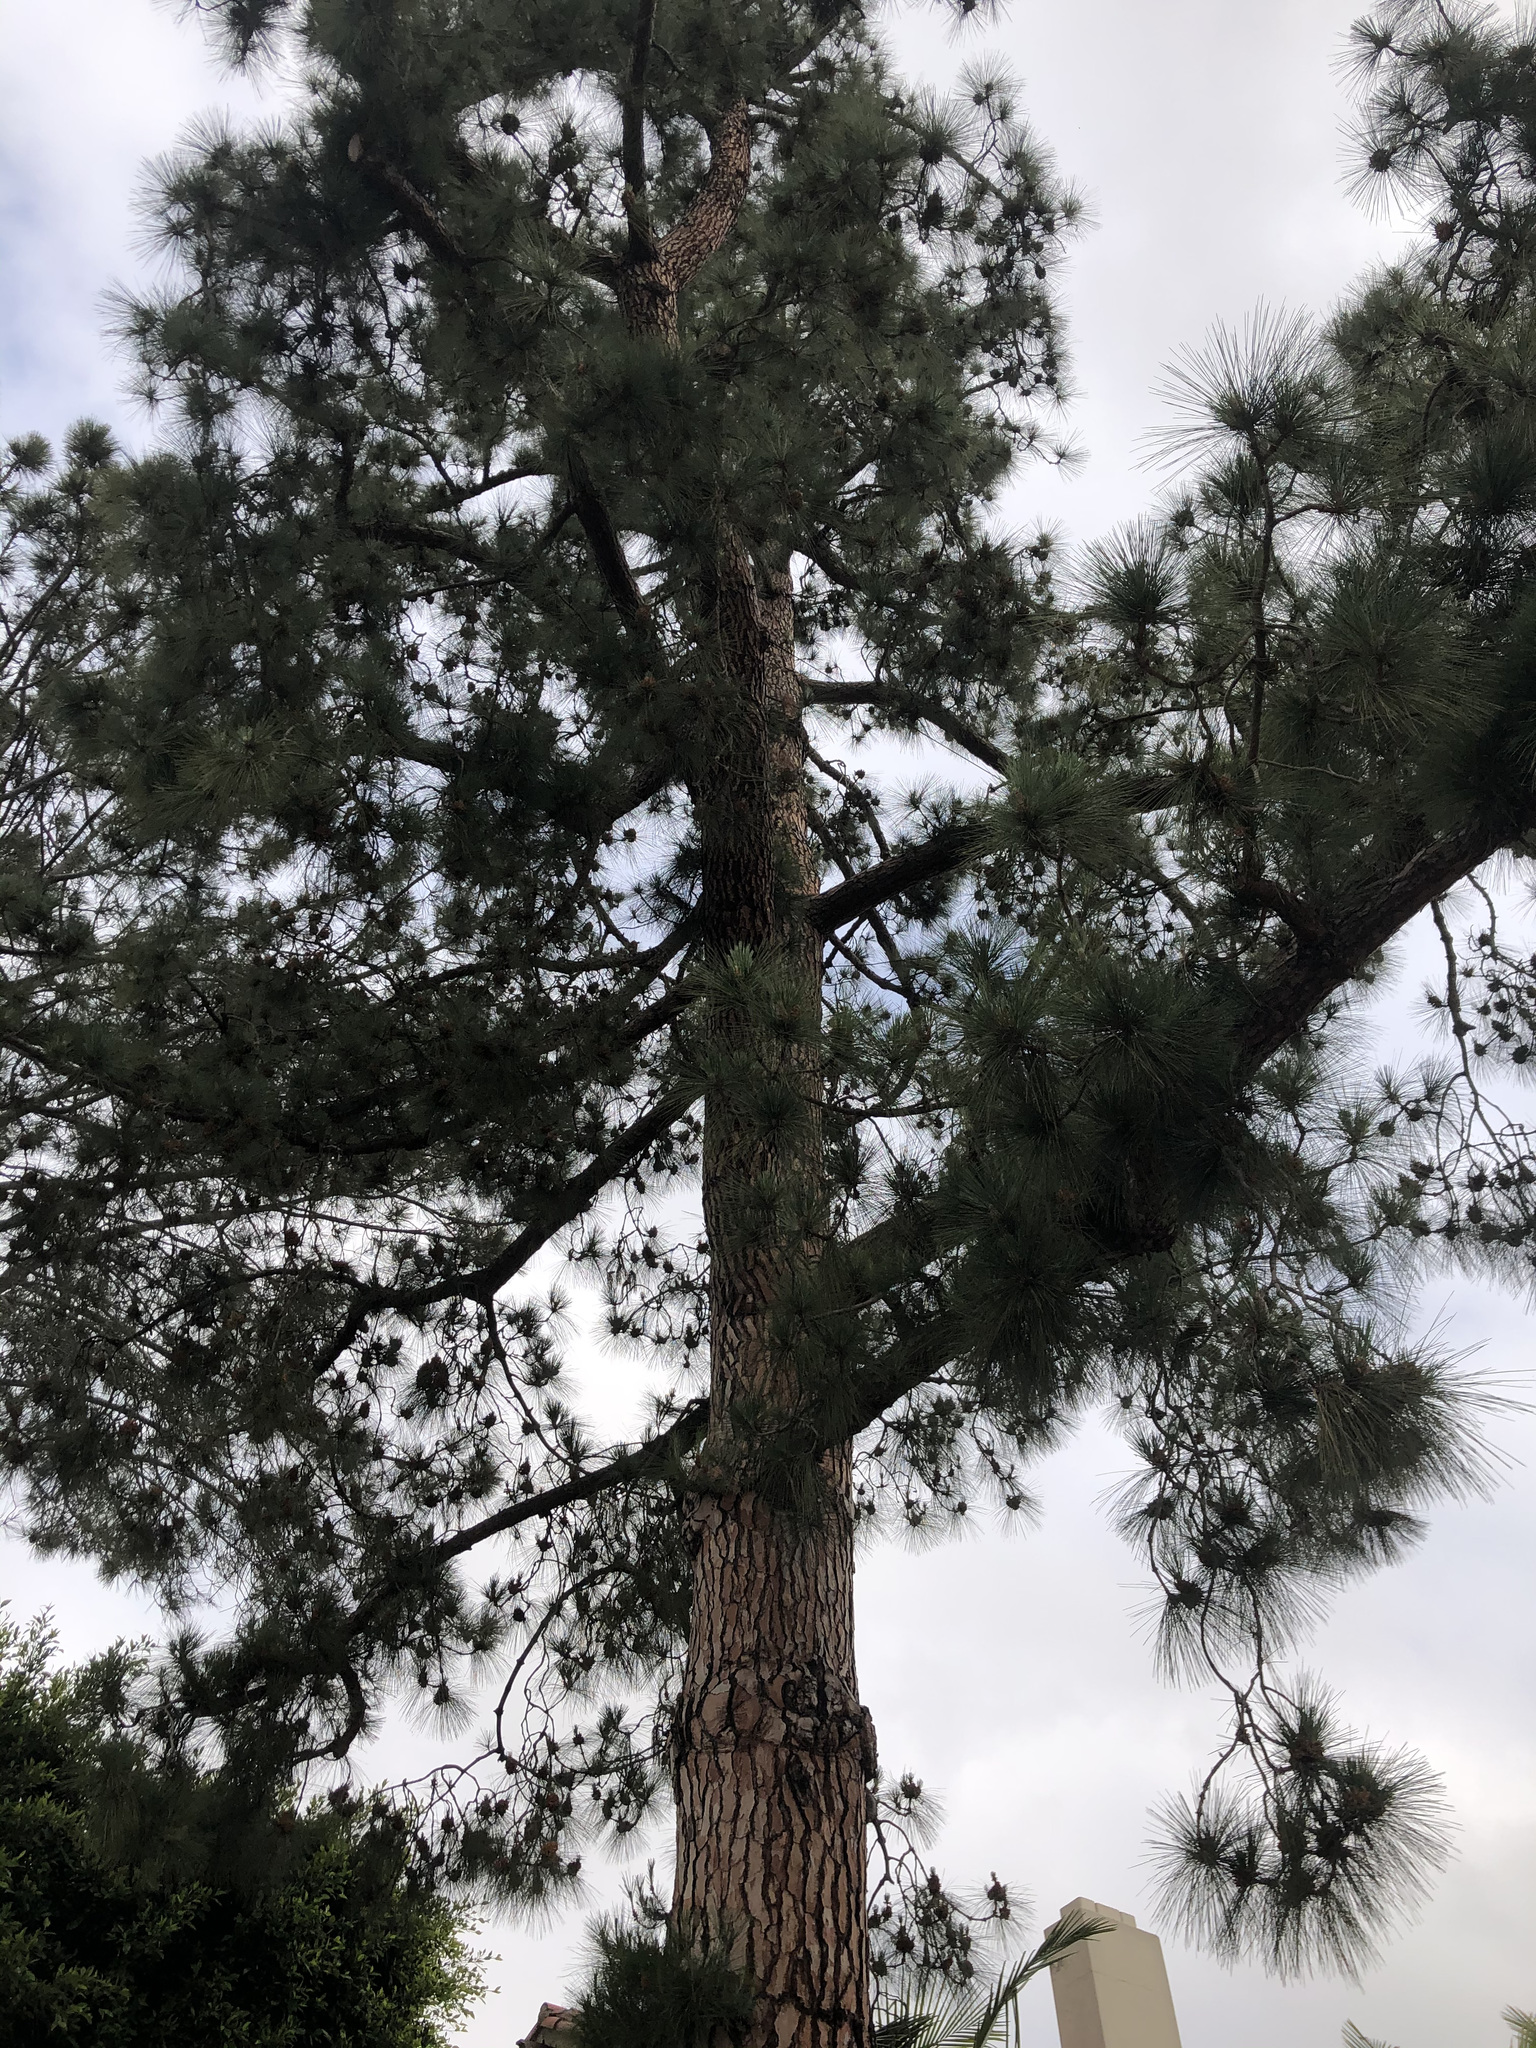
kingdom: Plantae
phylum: Tracheophyta
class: Pinopsida
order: Pinales
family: Pinaceae
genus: Pinus
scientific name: Pinus torreyana
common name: Torrey pine
